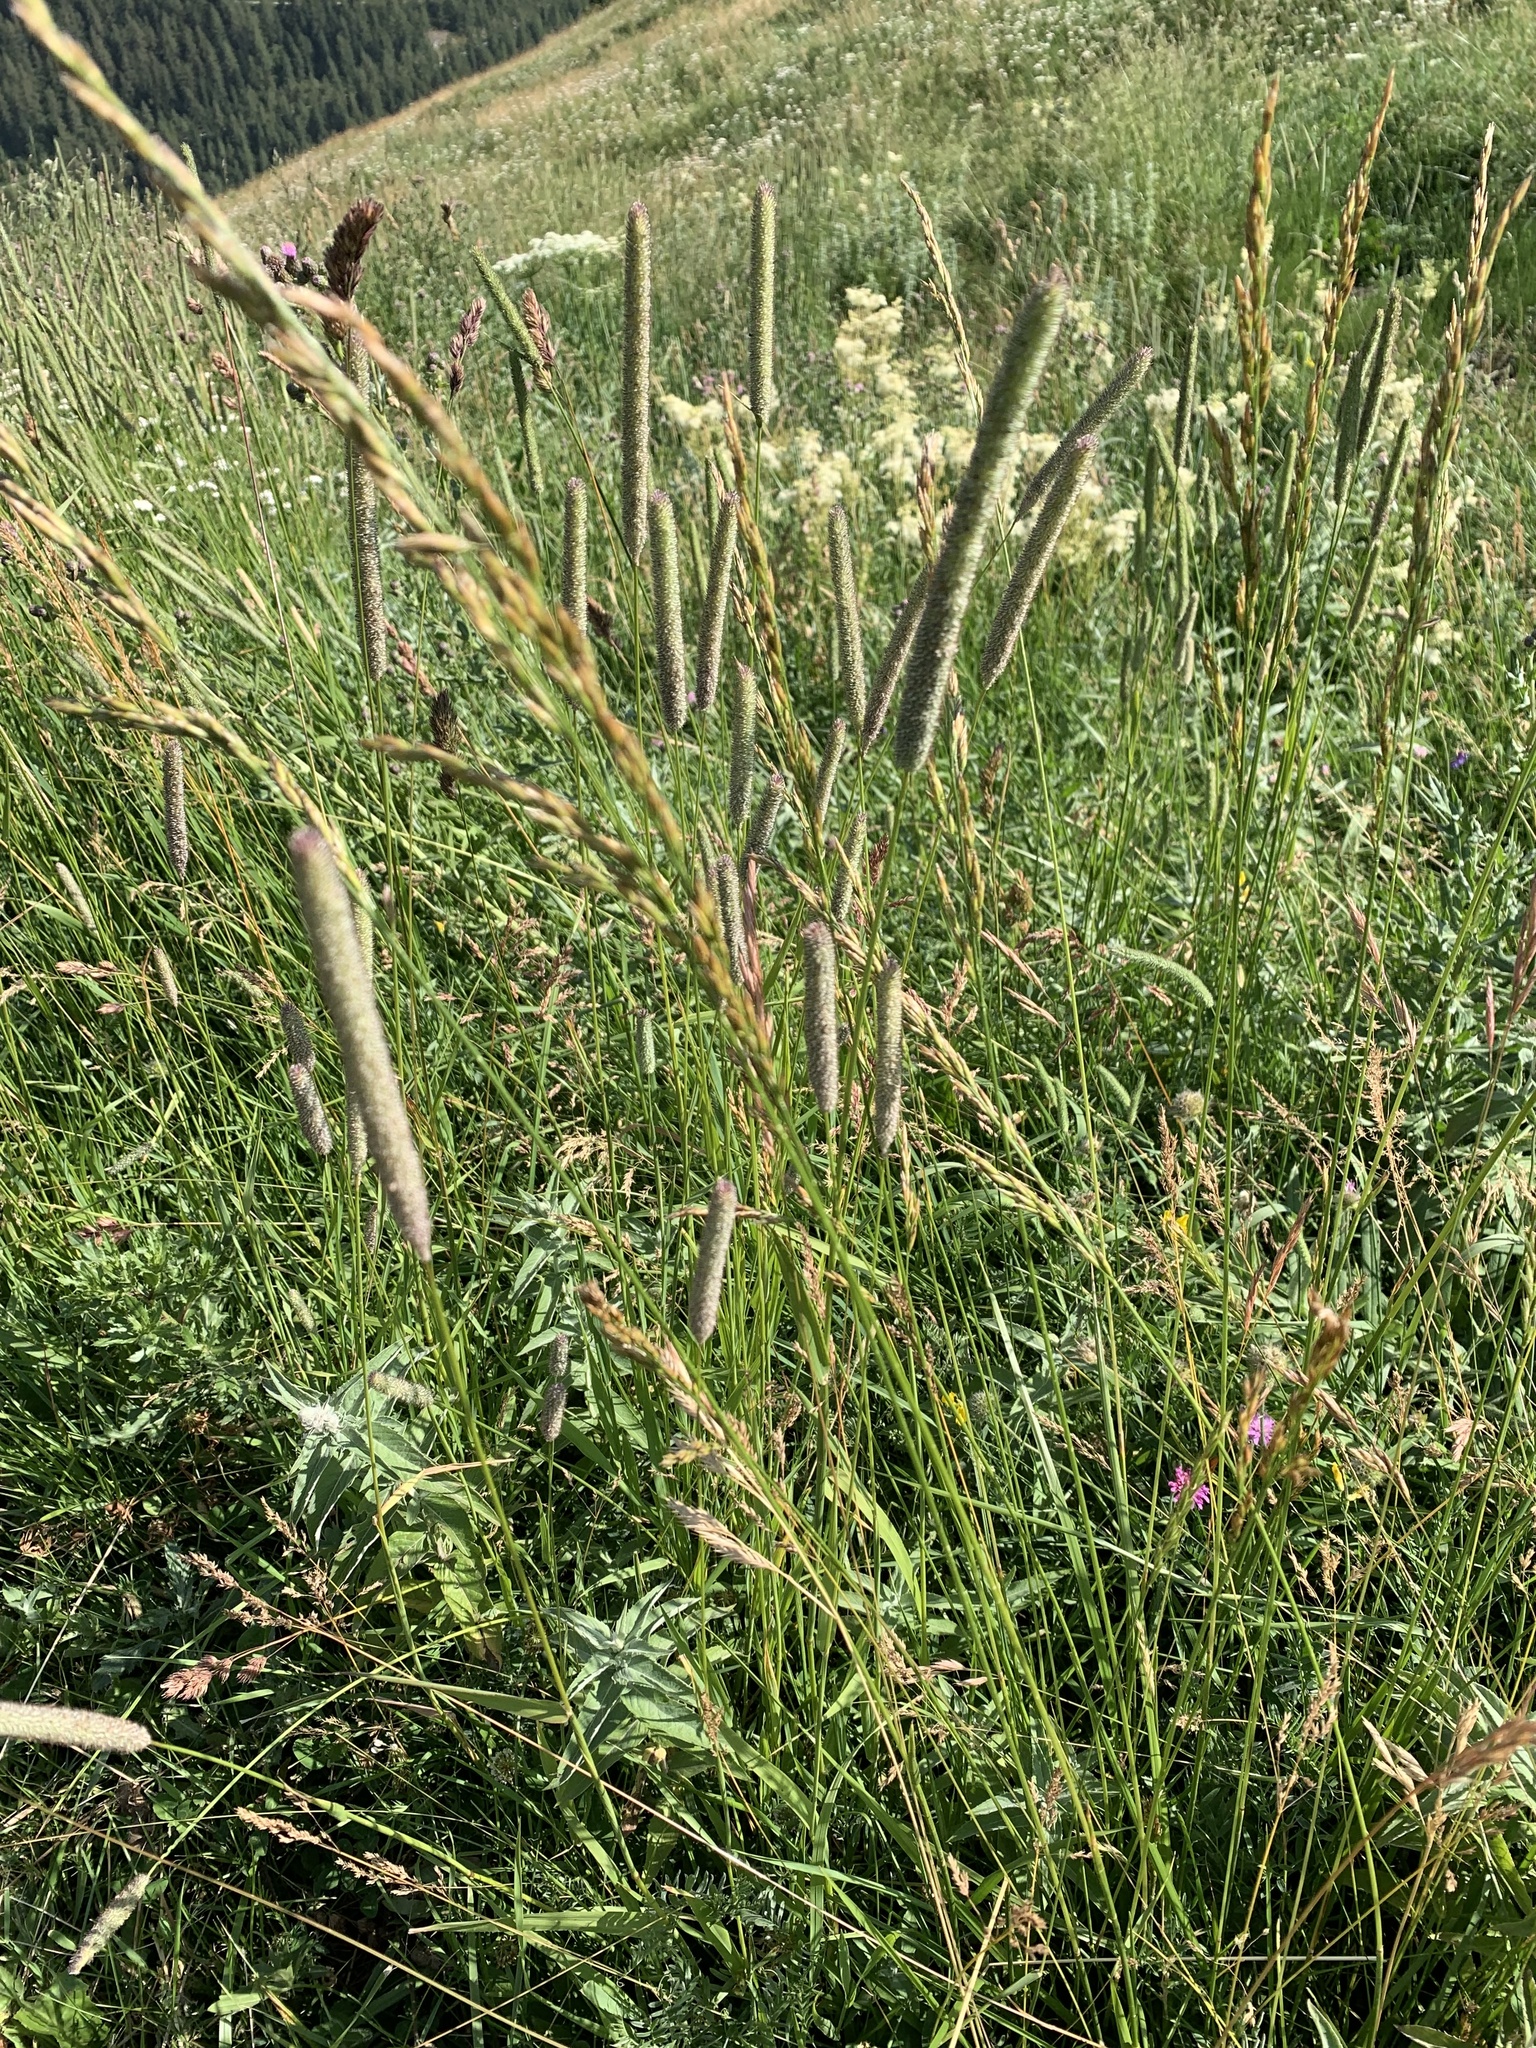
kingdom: Plantae
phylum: Tracheophyta
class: Liliopsida
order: Poales
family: Poaceae
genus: Phleum
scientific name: Phleum pratense
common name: Timothy grass
